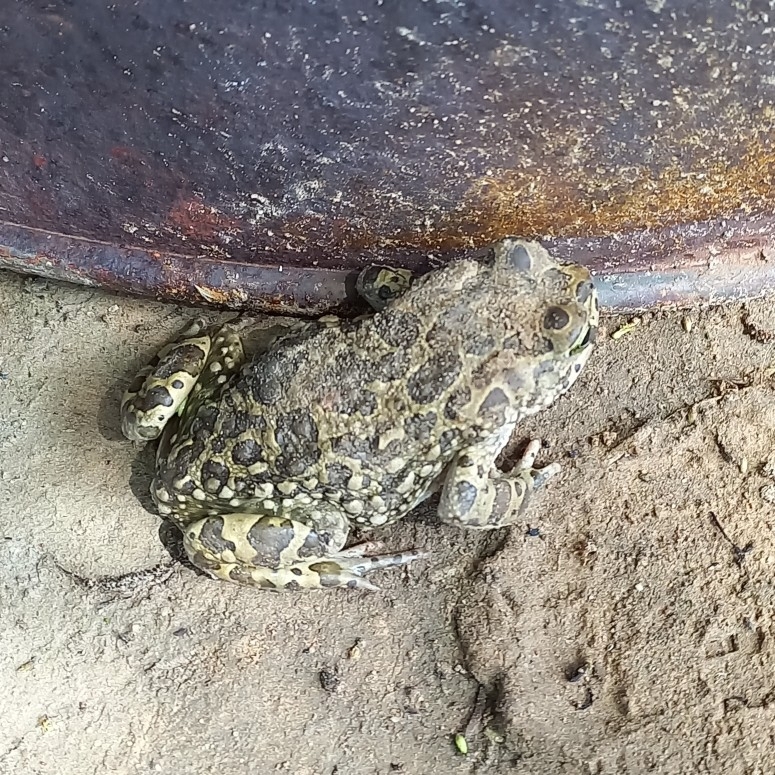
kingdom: Animalia
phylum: Chordata
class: Amphibia
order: Anura
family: Bufonidae
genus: Vandijkophrynus
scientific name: Vandijkophrynus gariepensis
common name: Gariep toad
